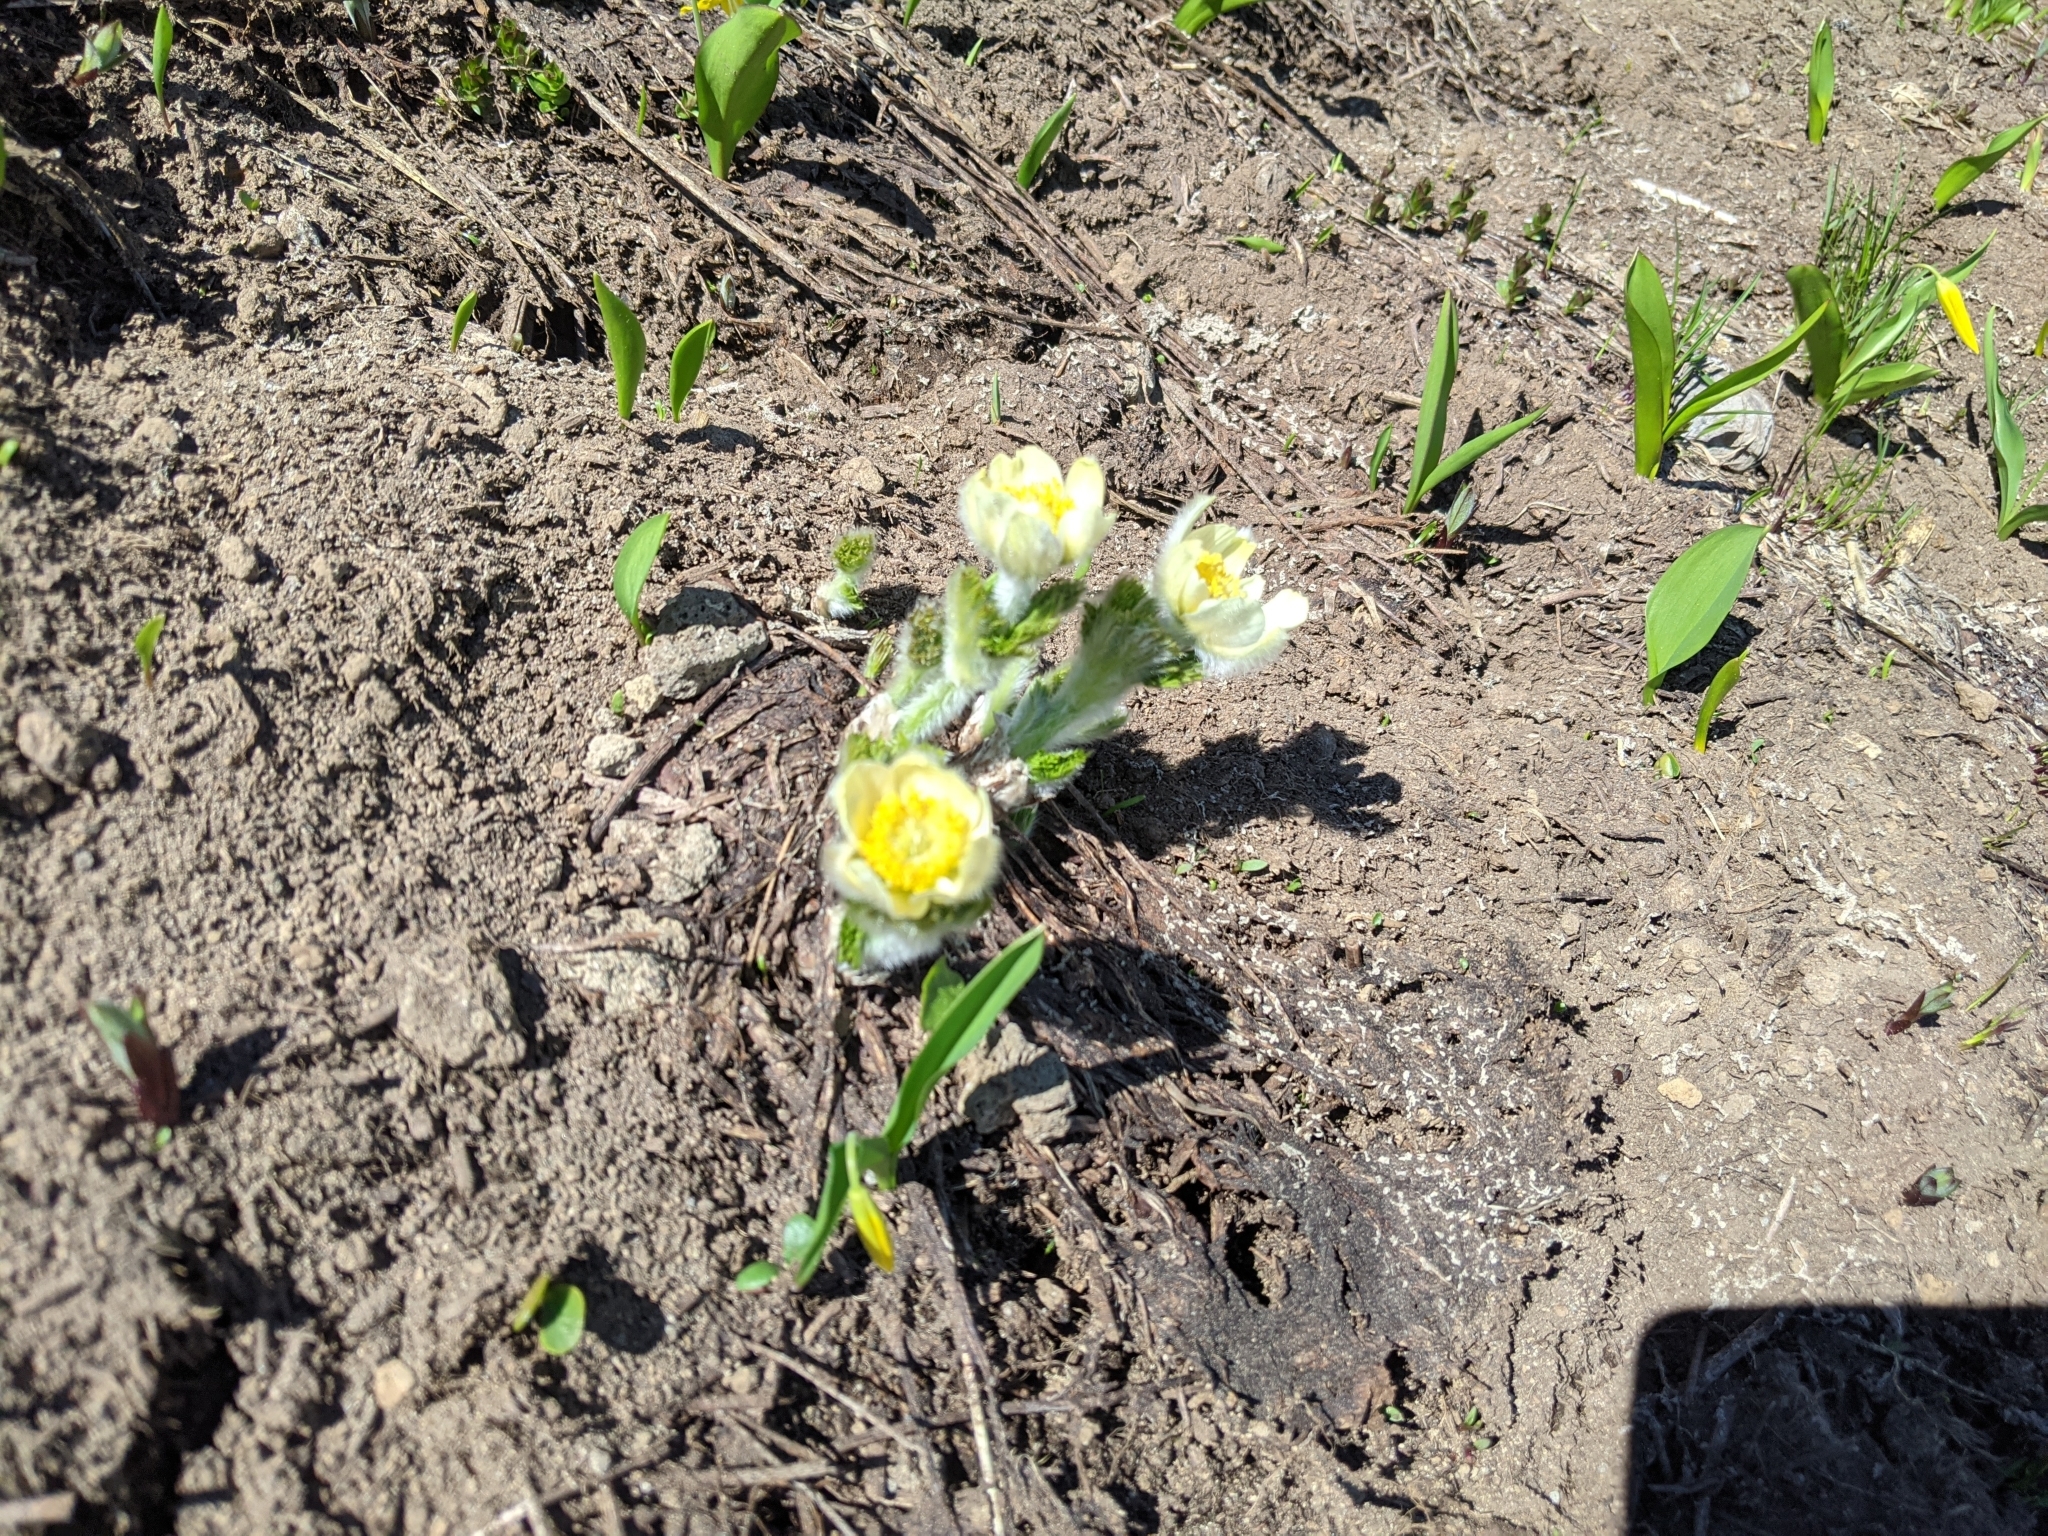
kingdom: Plantae
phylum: Tracheophyta
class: Magnoliopsida
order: Ranunculales
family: Ranunculaceae
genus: Pulsatilla
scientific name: Pulsatilla occidentalis
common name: Mountain pasqueflower
